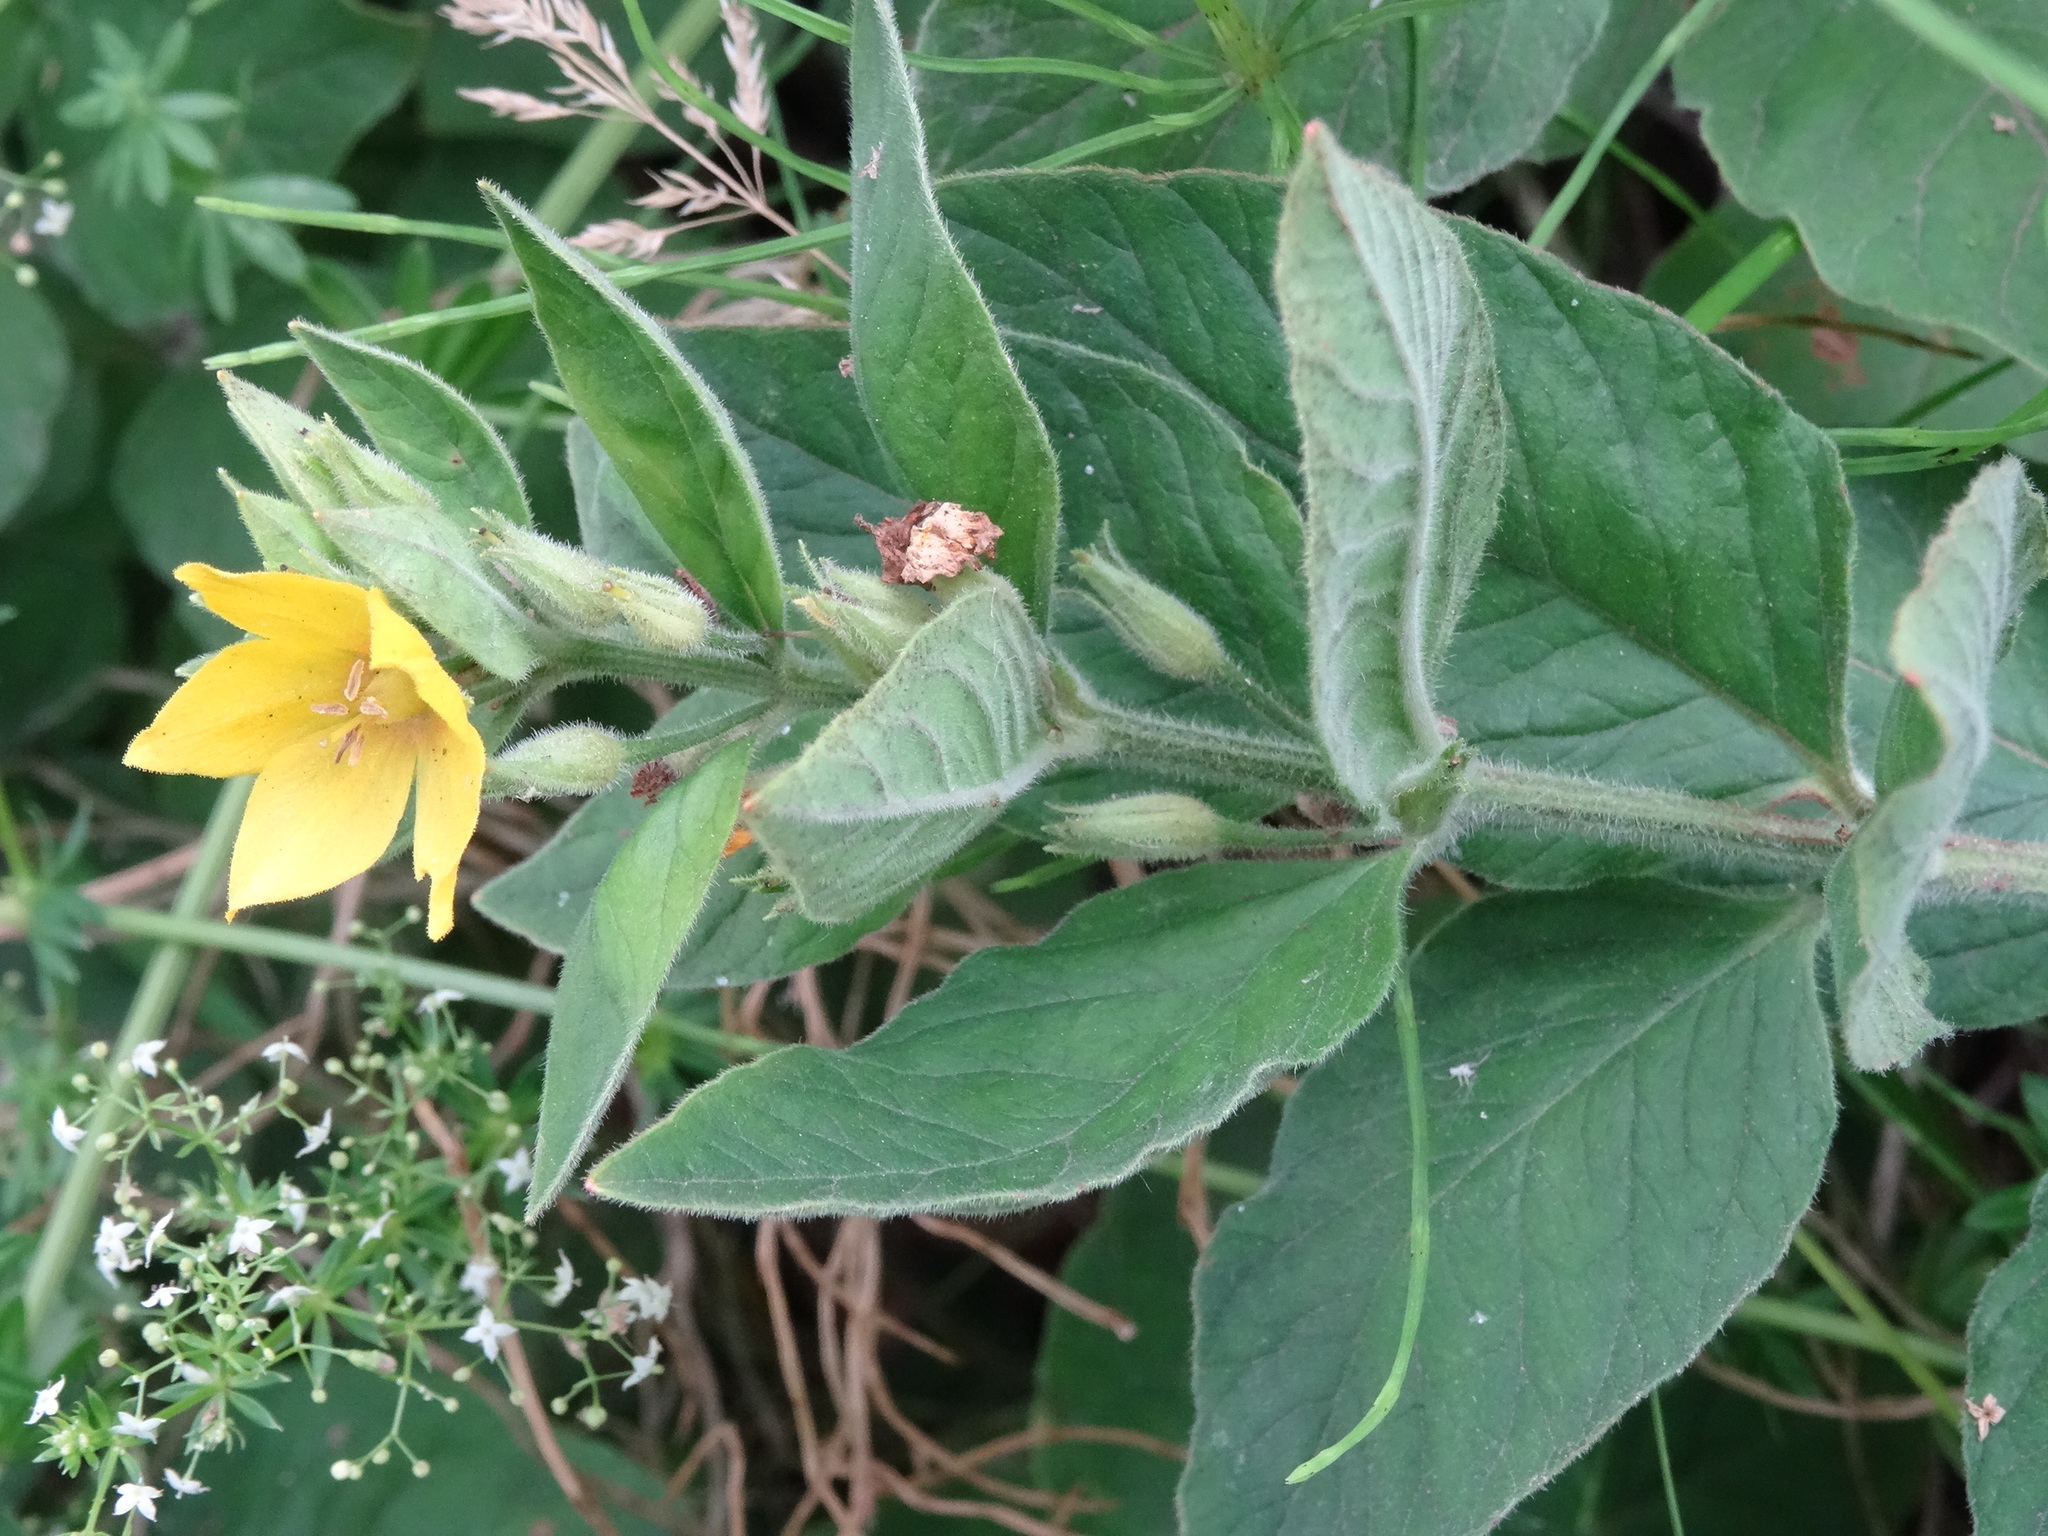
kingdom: Plantae
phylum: Tracheophyta
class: Magnoliopsida
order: Ericales
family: Primulaceae
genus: Lysimachia
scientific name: Lysimachia punctata
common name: Dotted loosestrife
